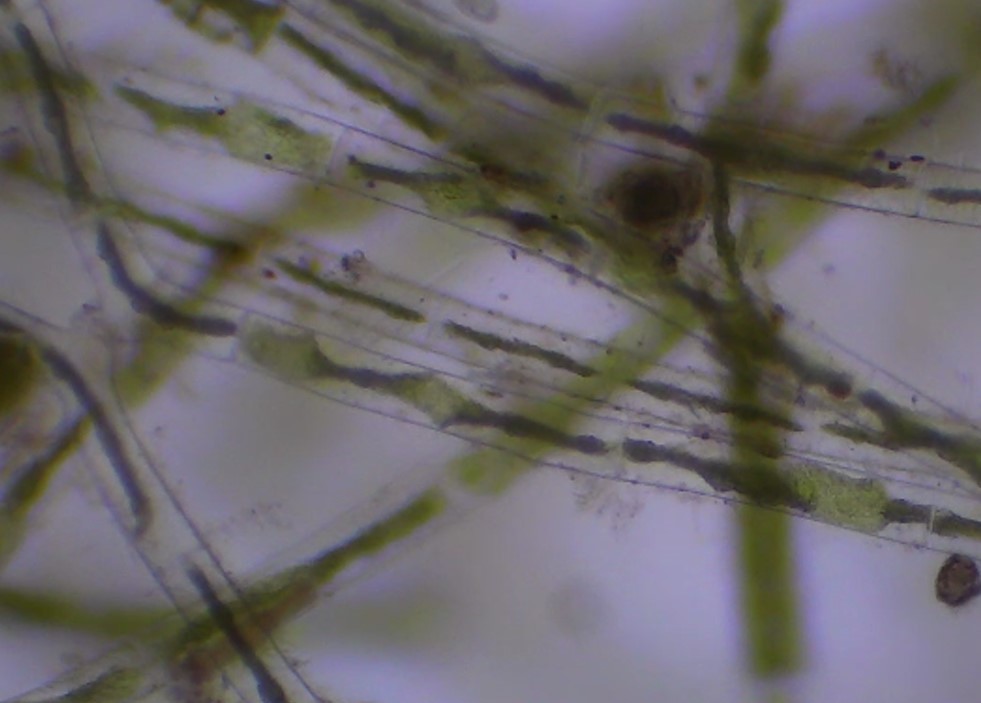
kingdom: Plantae
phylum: Charophyta
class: Zygnematophyceae
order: Zygnematales
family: Zygnemataceae
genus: Mougeotia
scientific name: Mougeotia
